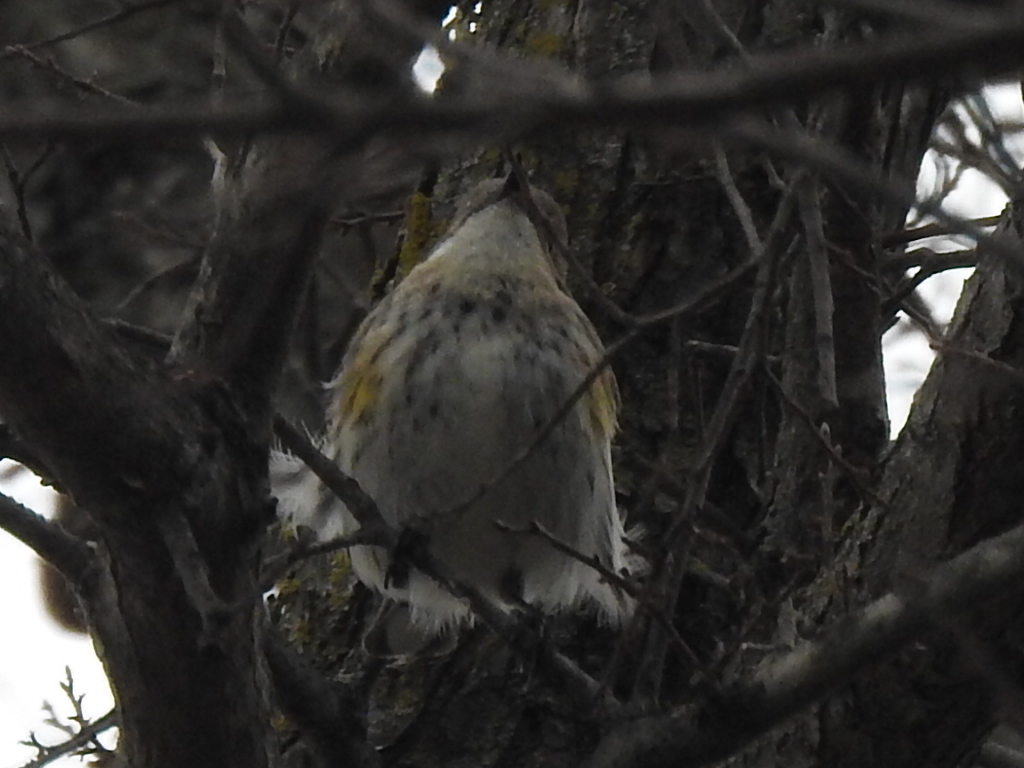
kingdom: Animalia
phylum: Chordata
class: Aves
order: Passeriformes
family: Parulidae
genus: Setophaga
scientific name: Setophaga coronata
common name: Myrtle warbler
